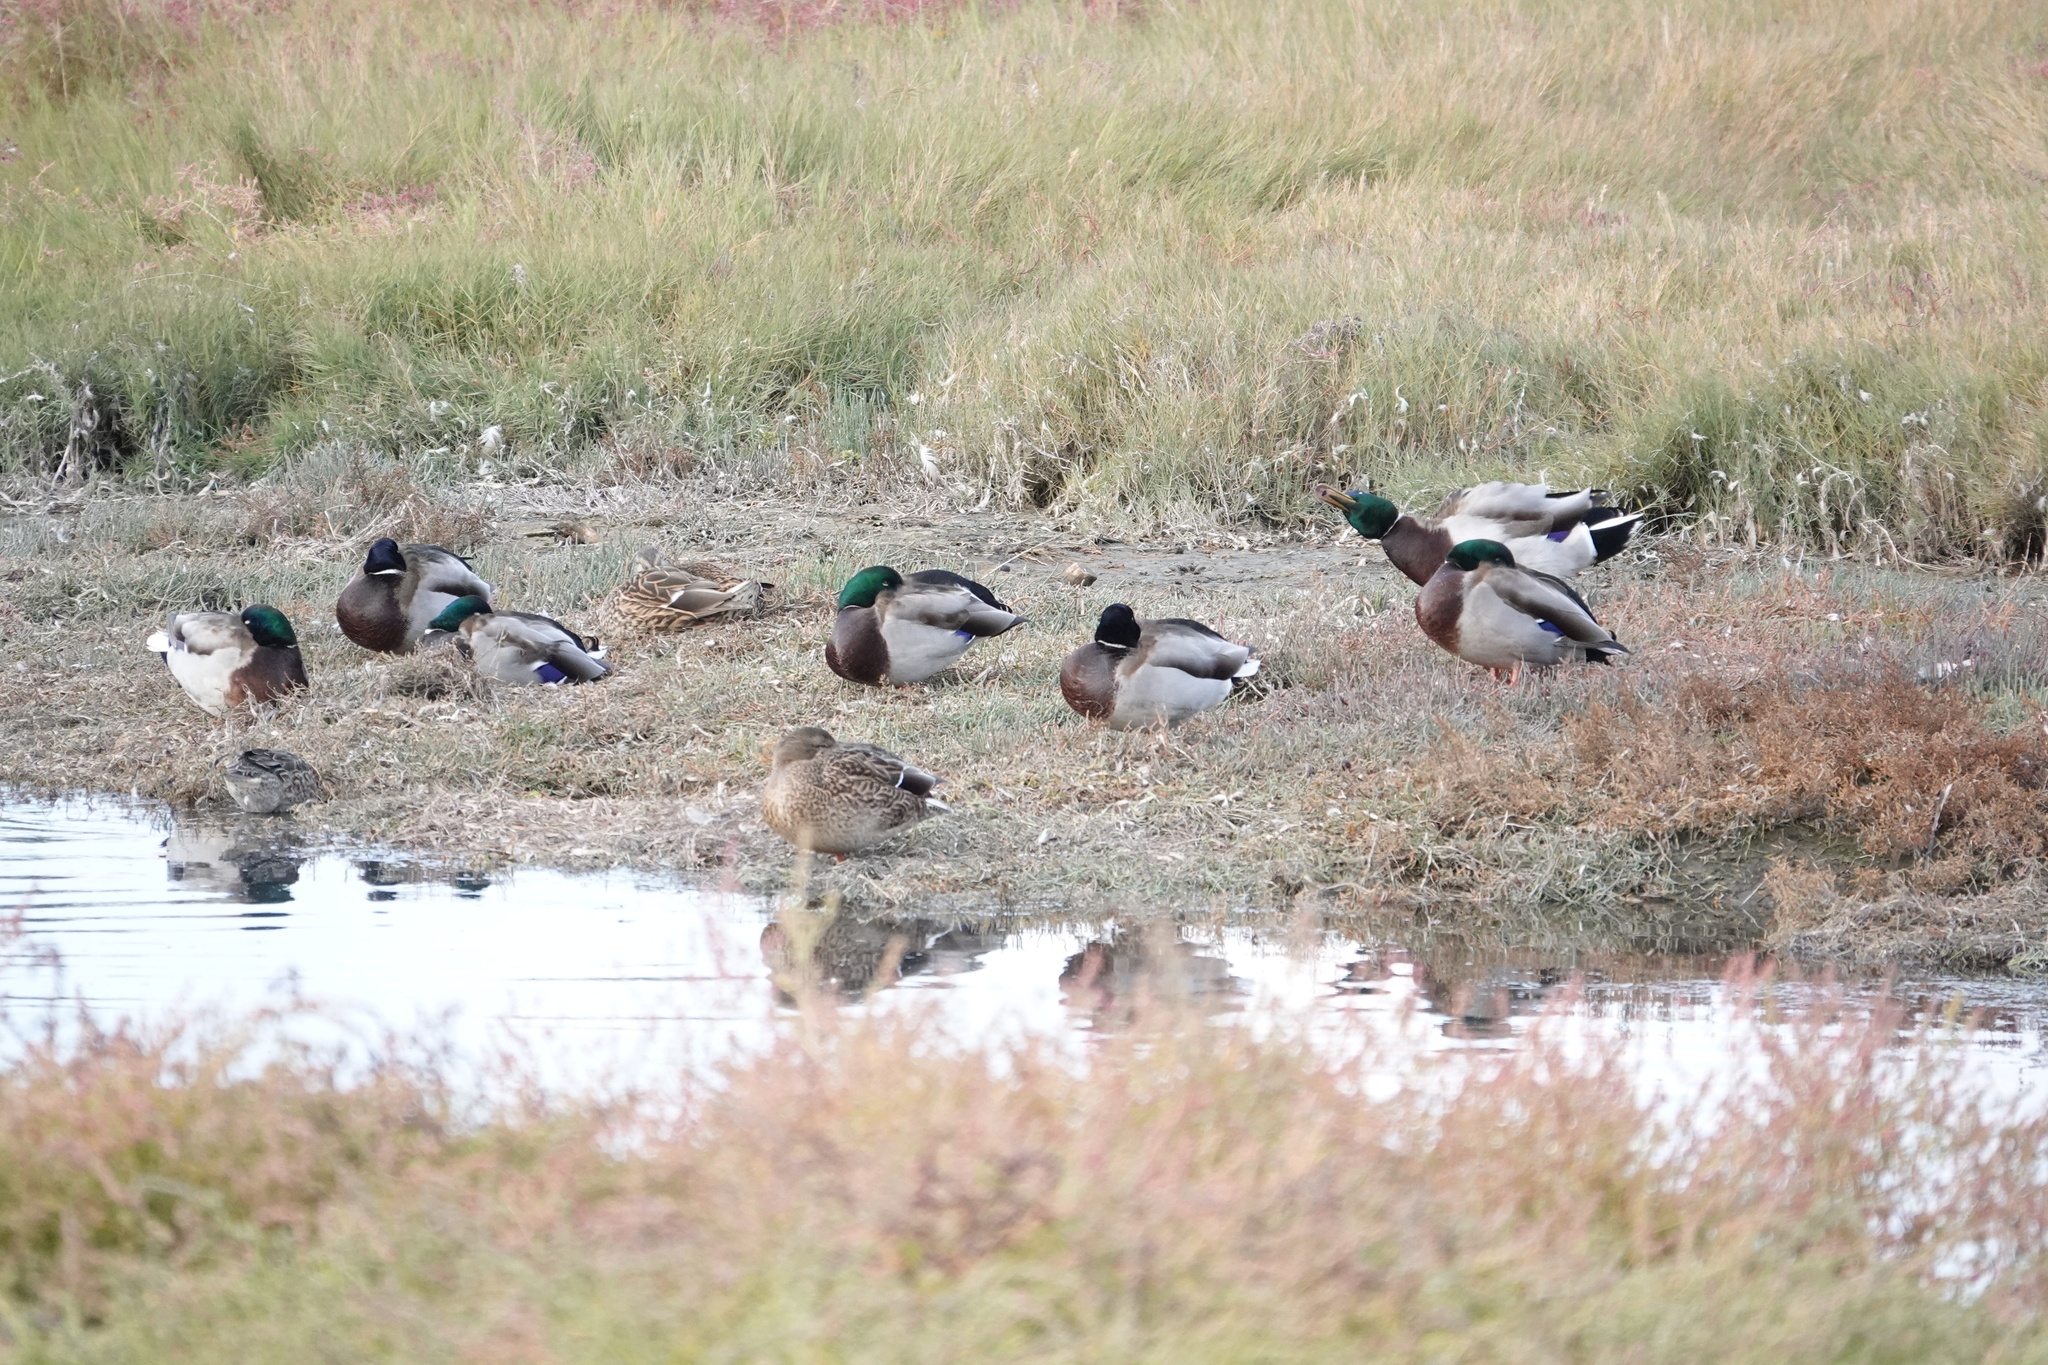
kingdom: Animalia
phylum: Chordata
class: Aves
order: Anseriformes
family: Anatidae
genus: Anas
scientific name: Anas platyrhynchos
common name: Mallard
